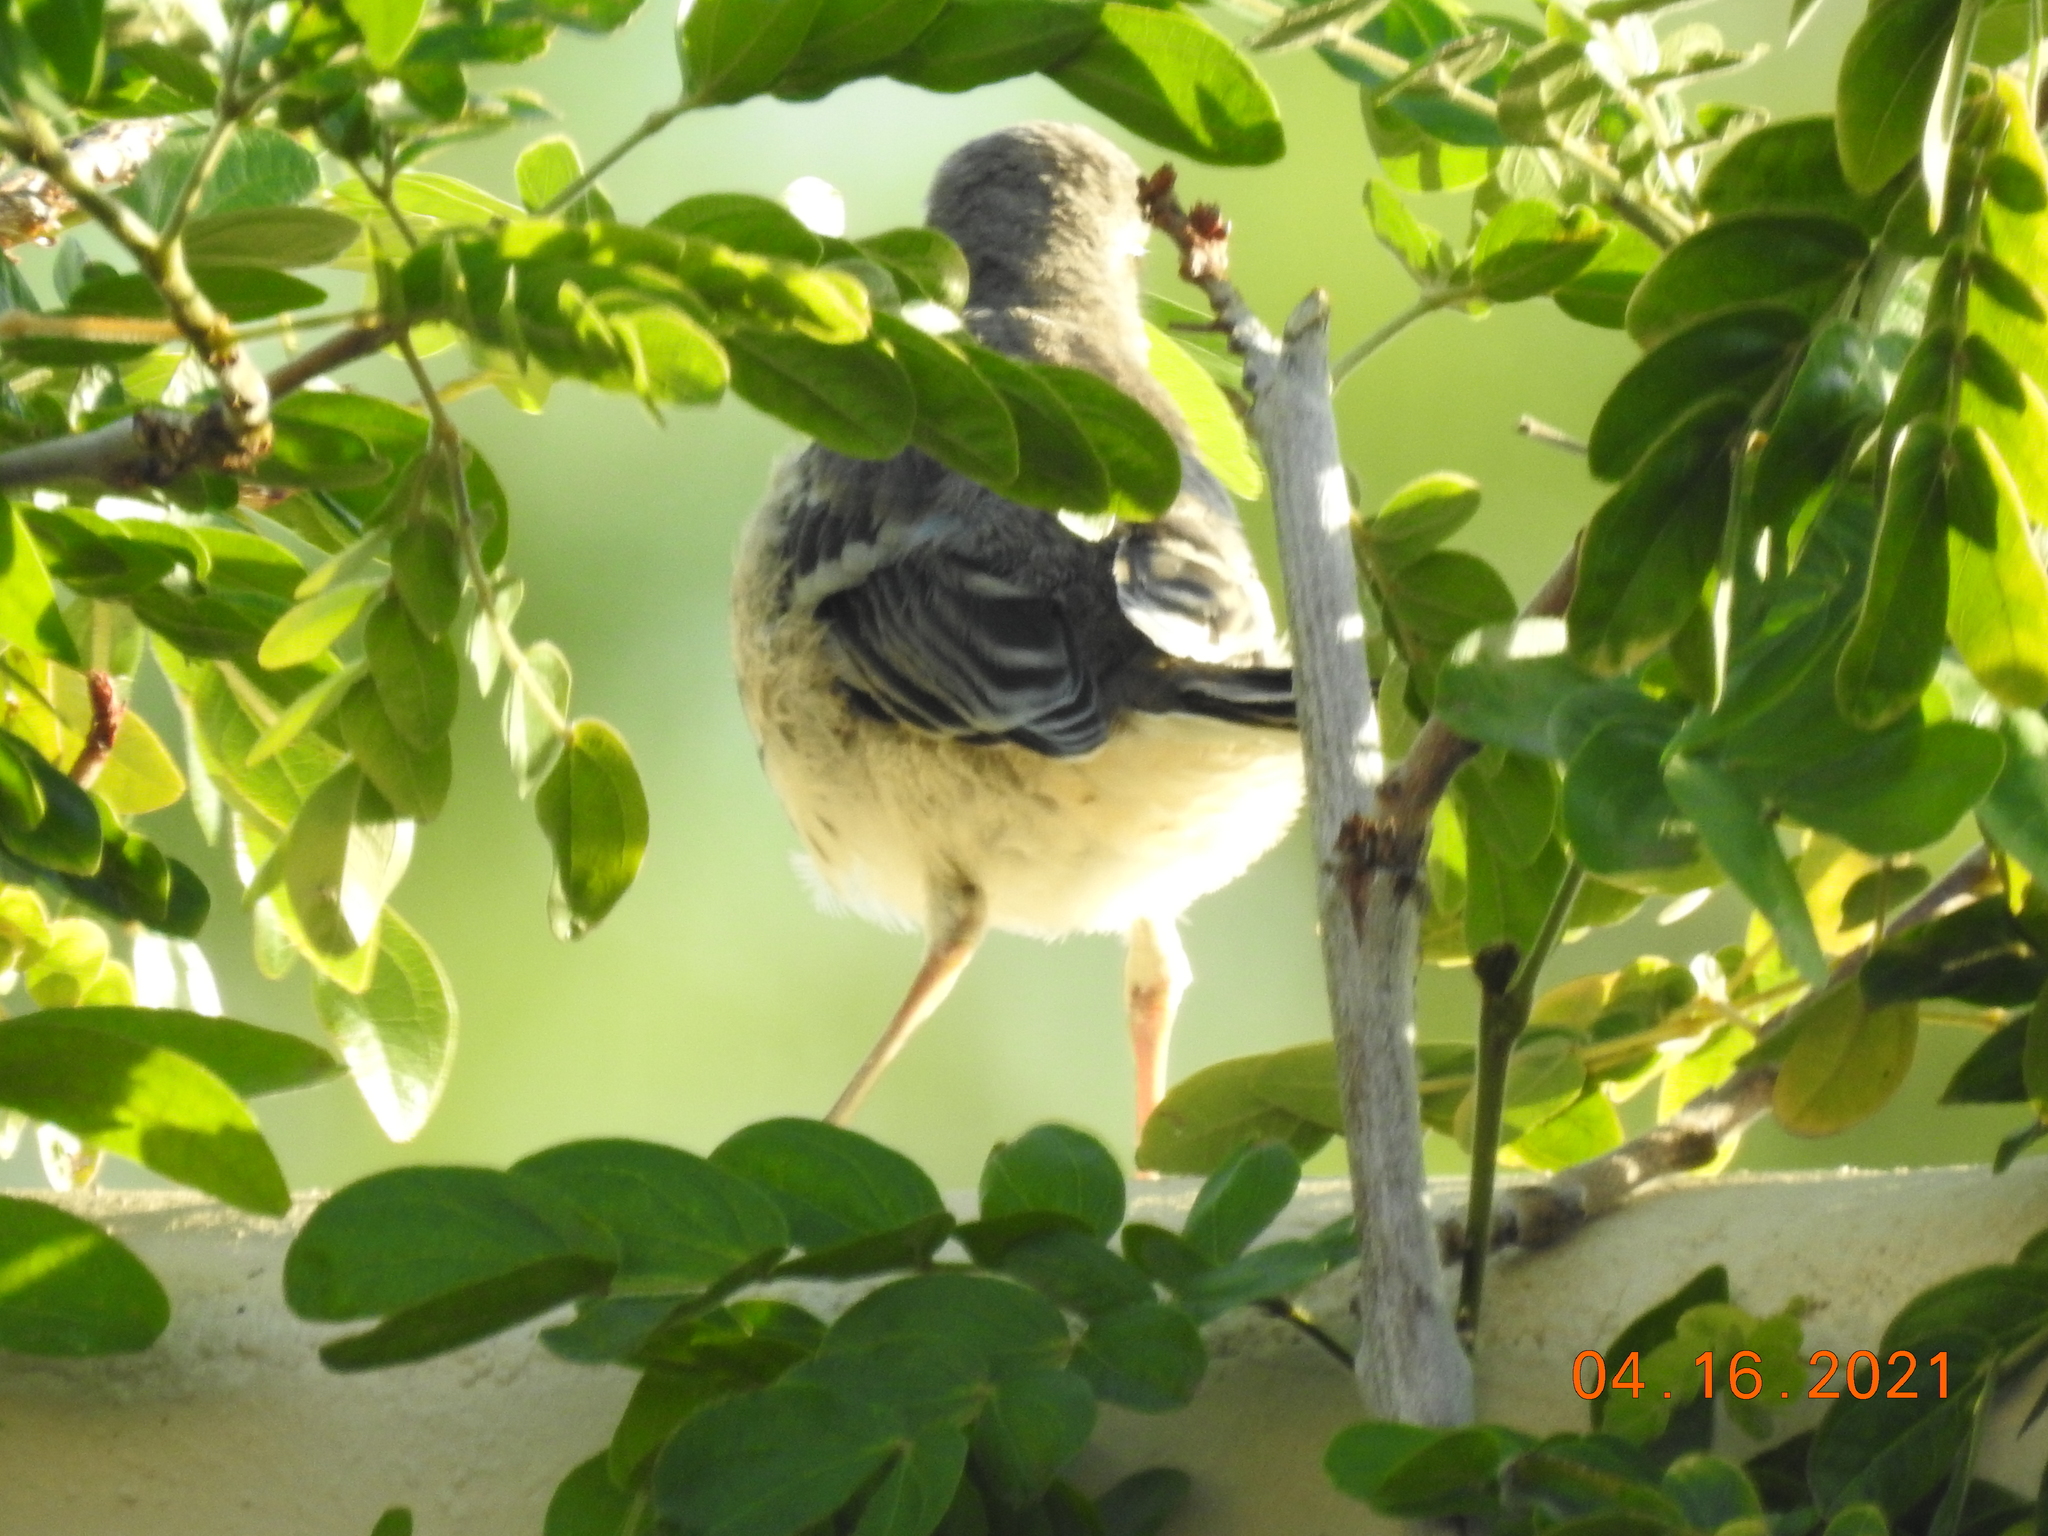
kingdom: Animalia
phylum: Chordata
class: Aves
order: Passeriformes
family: Mimidae
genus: Mimus
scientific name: Mimus polyglottos
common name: Northern mockingbird
